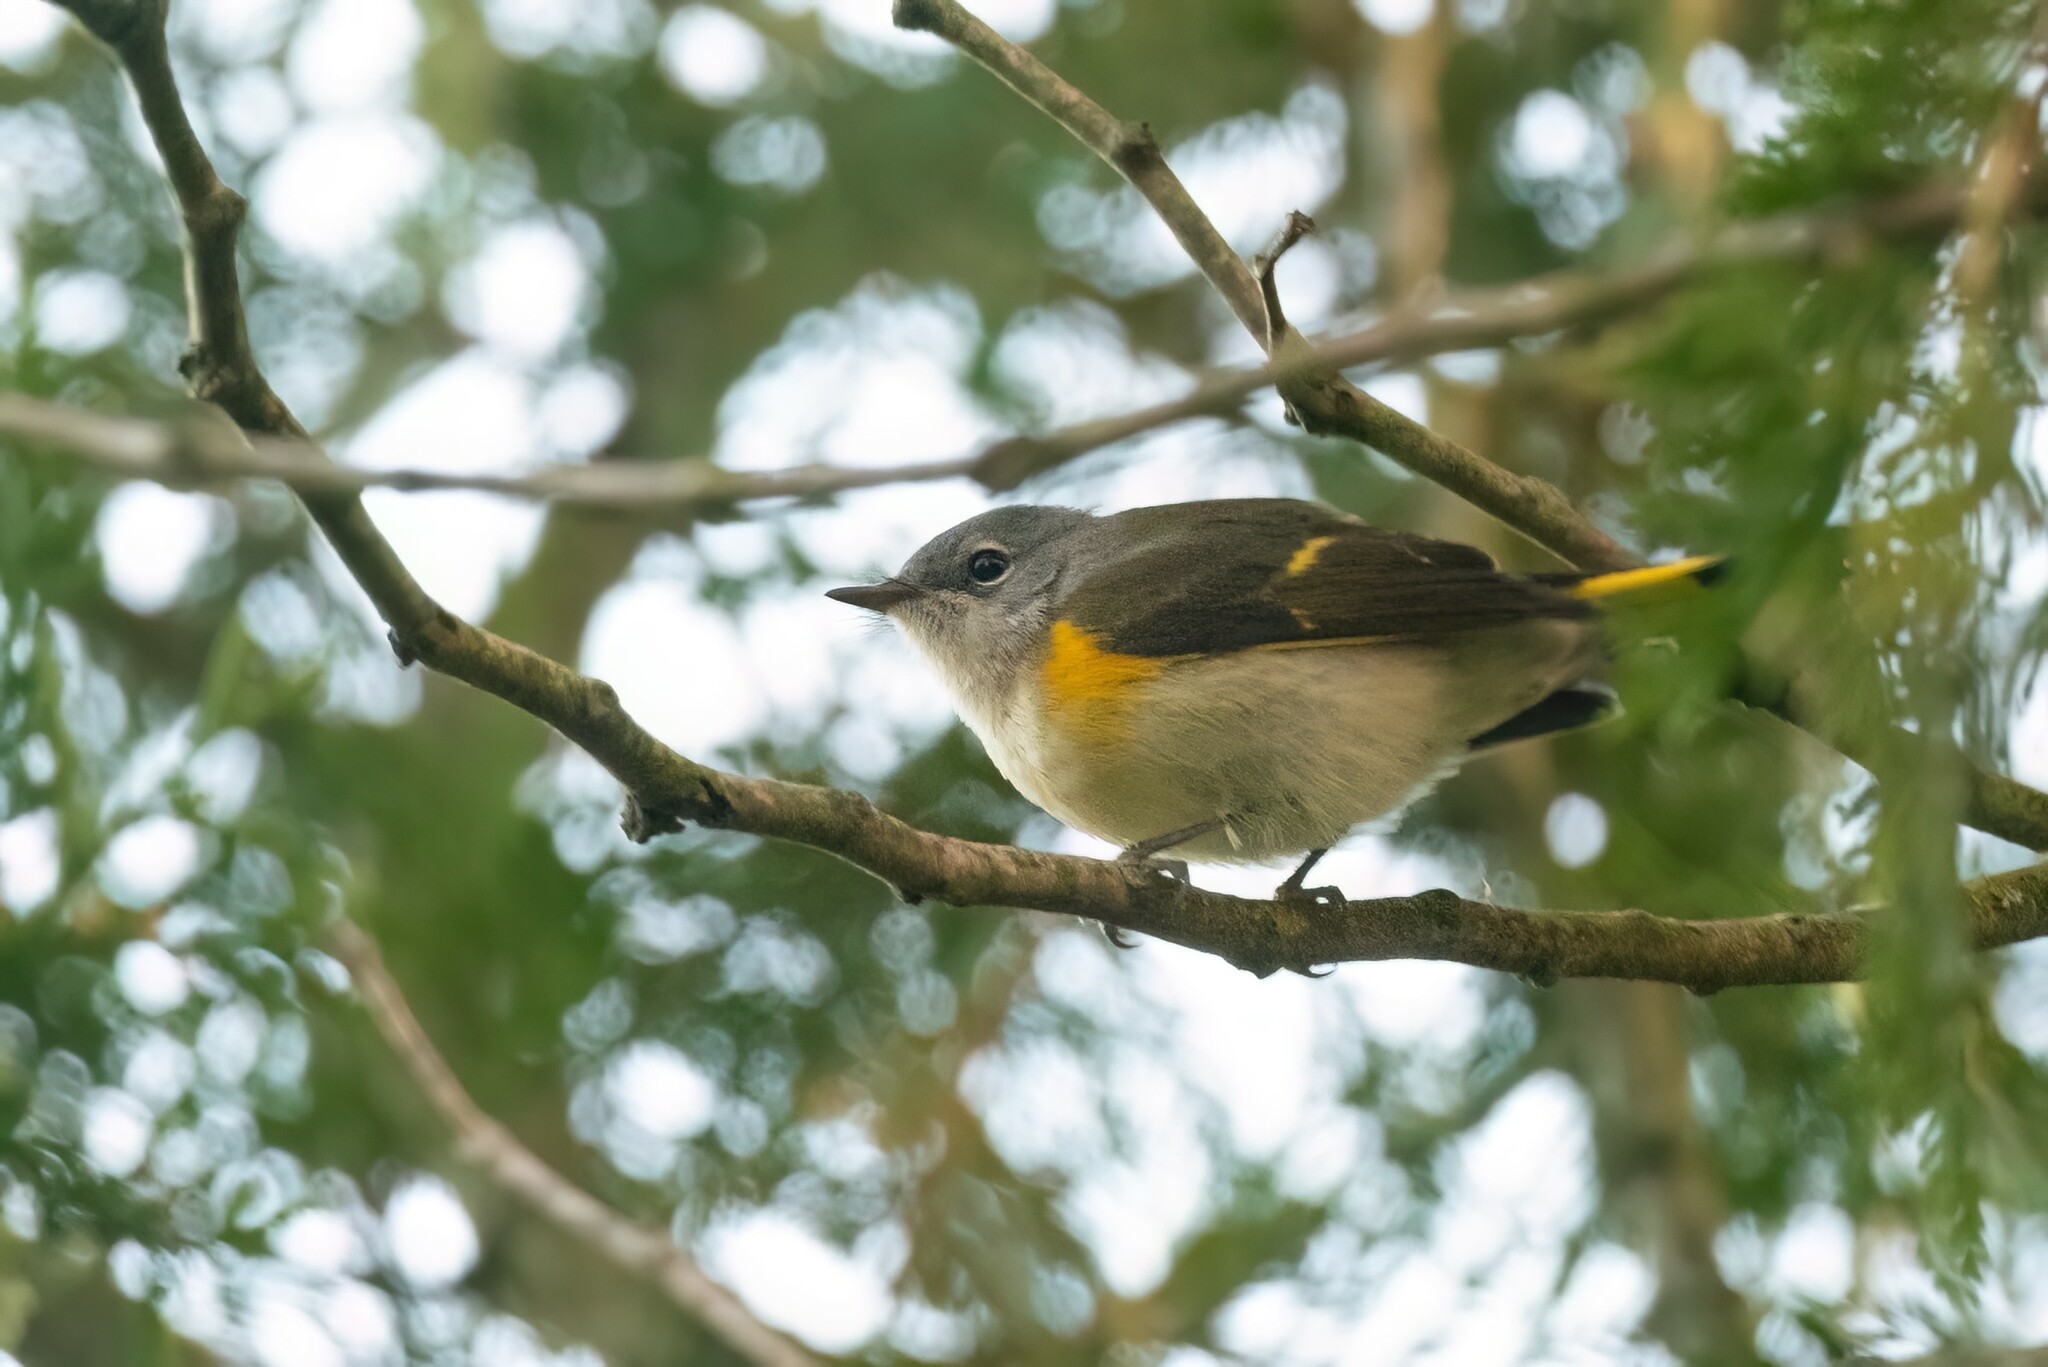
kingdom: Animalia
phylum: Chordata
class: Aves
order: Passeriformes
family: Parulidae
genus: Setophaga
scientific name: Setophaga ruticilla
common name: American redstart
